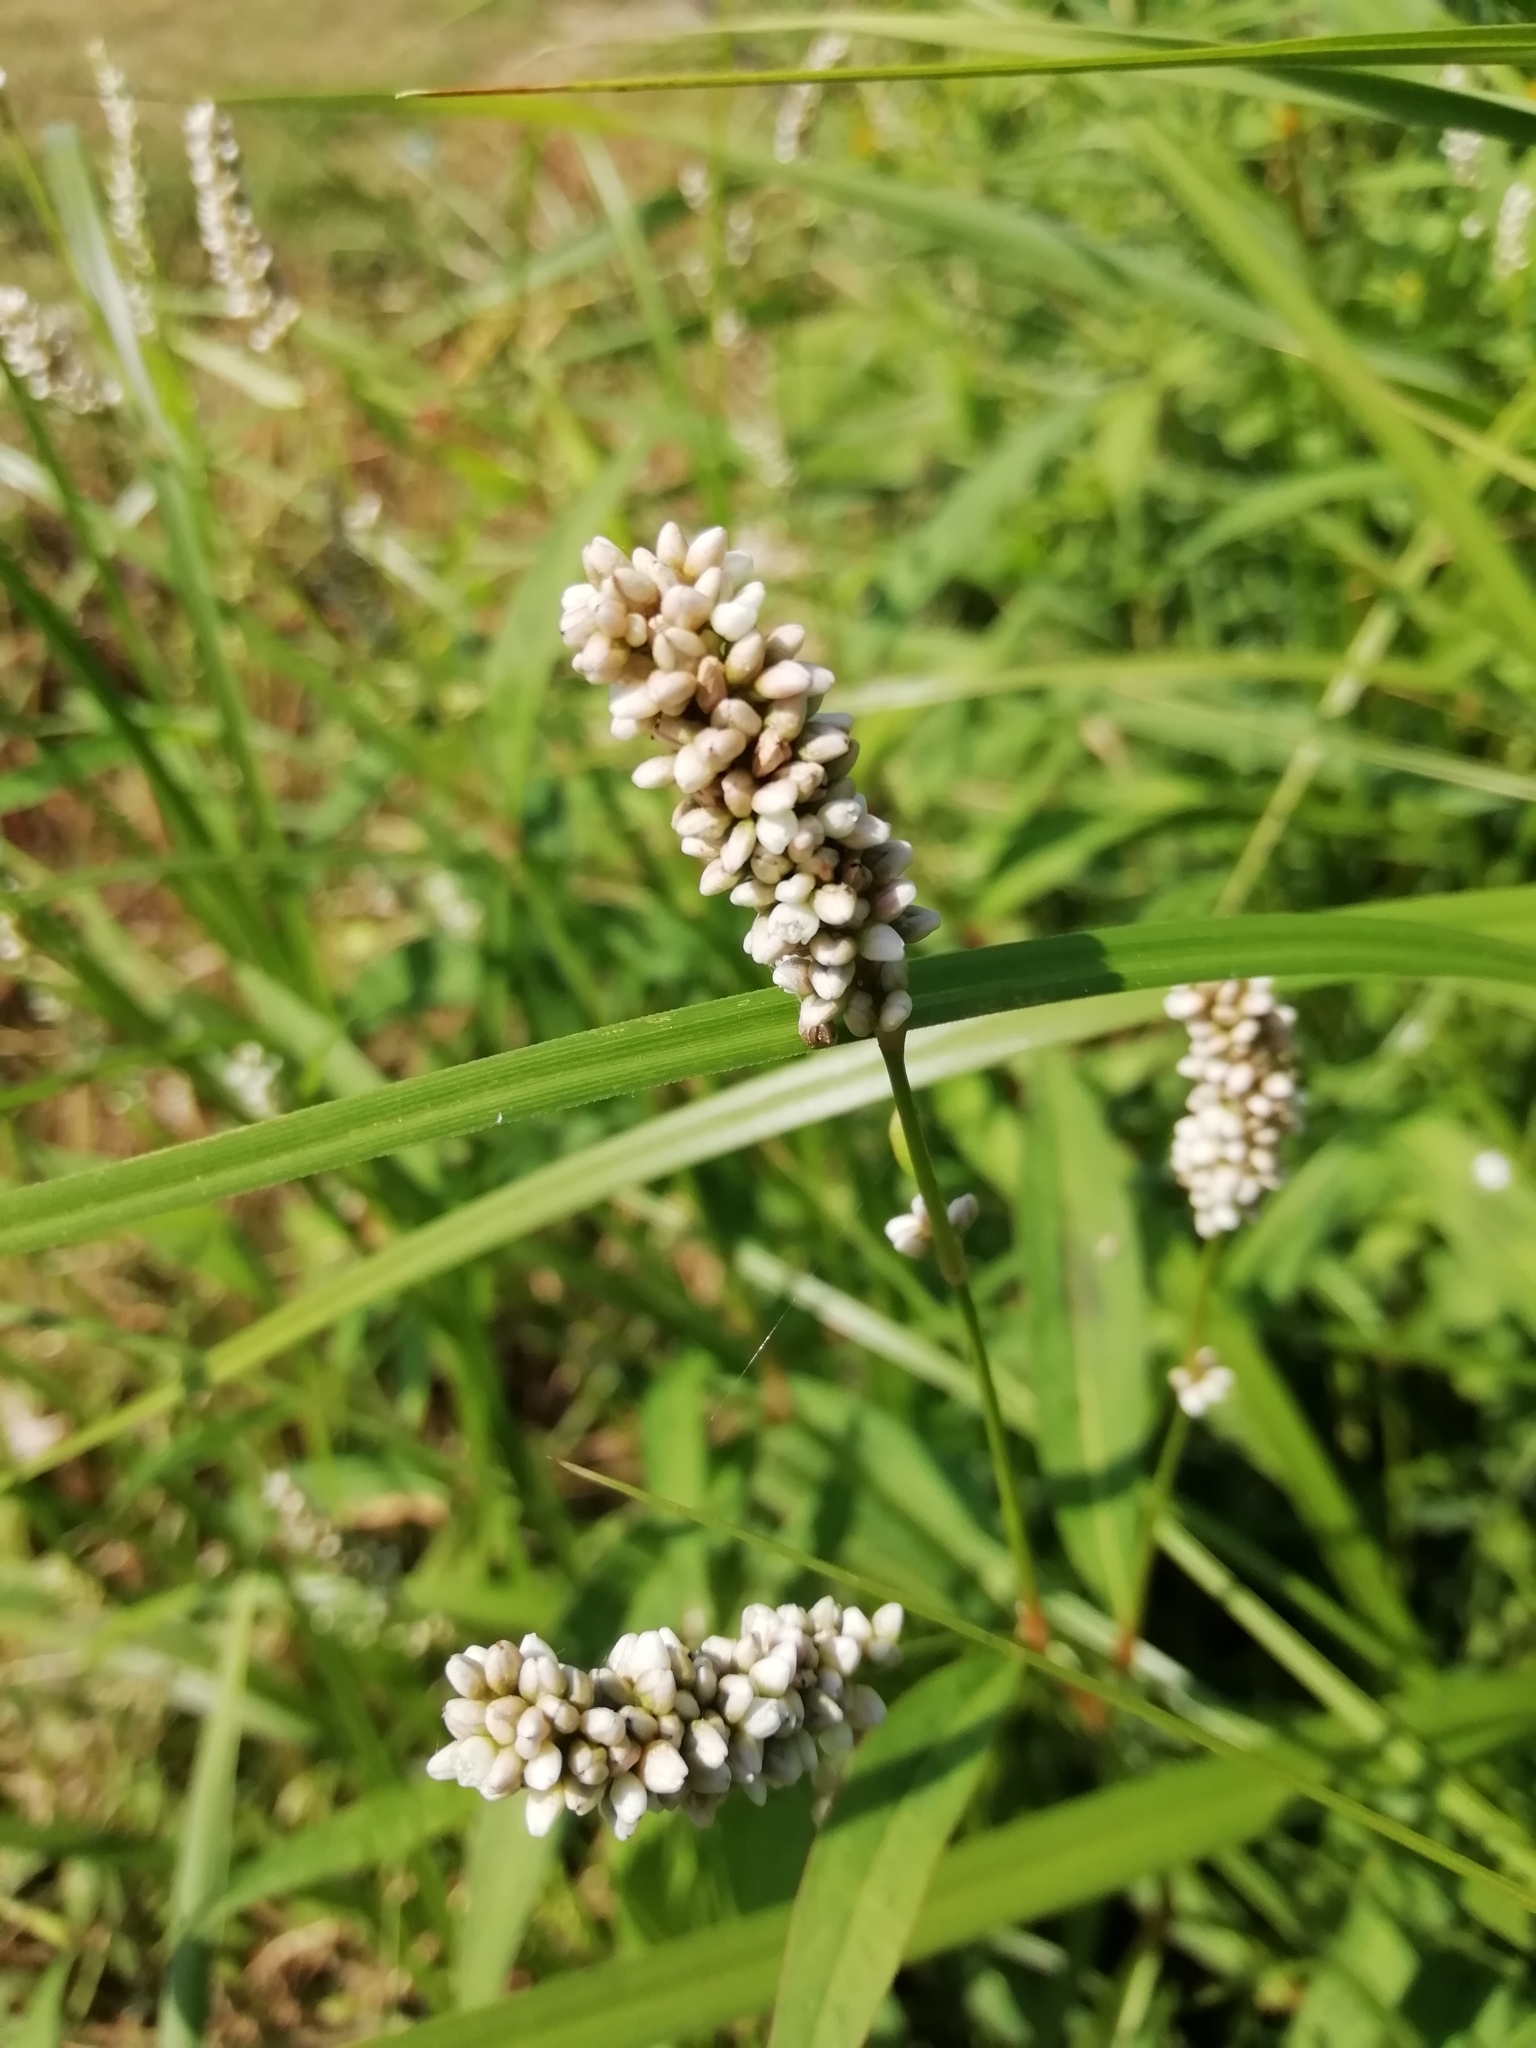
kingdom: Plantae
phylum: Tracheophyta
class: Magnoliopsida
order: Caryophyllales
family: Polygonaceae
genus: Persicaria
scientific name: Persicaria maculosa
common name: Redshank
